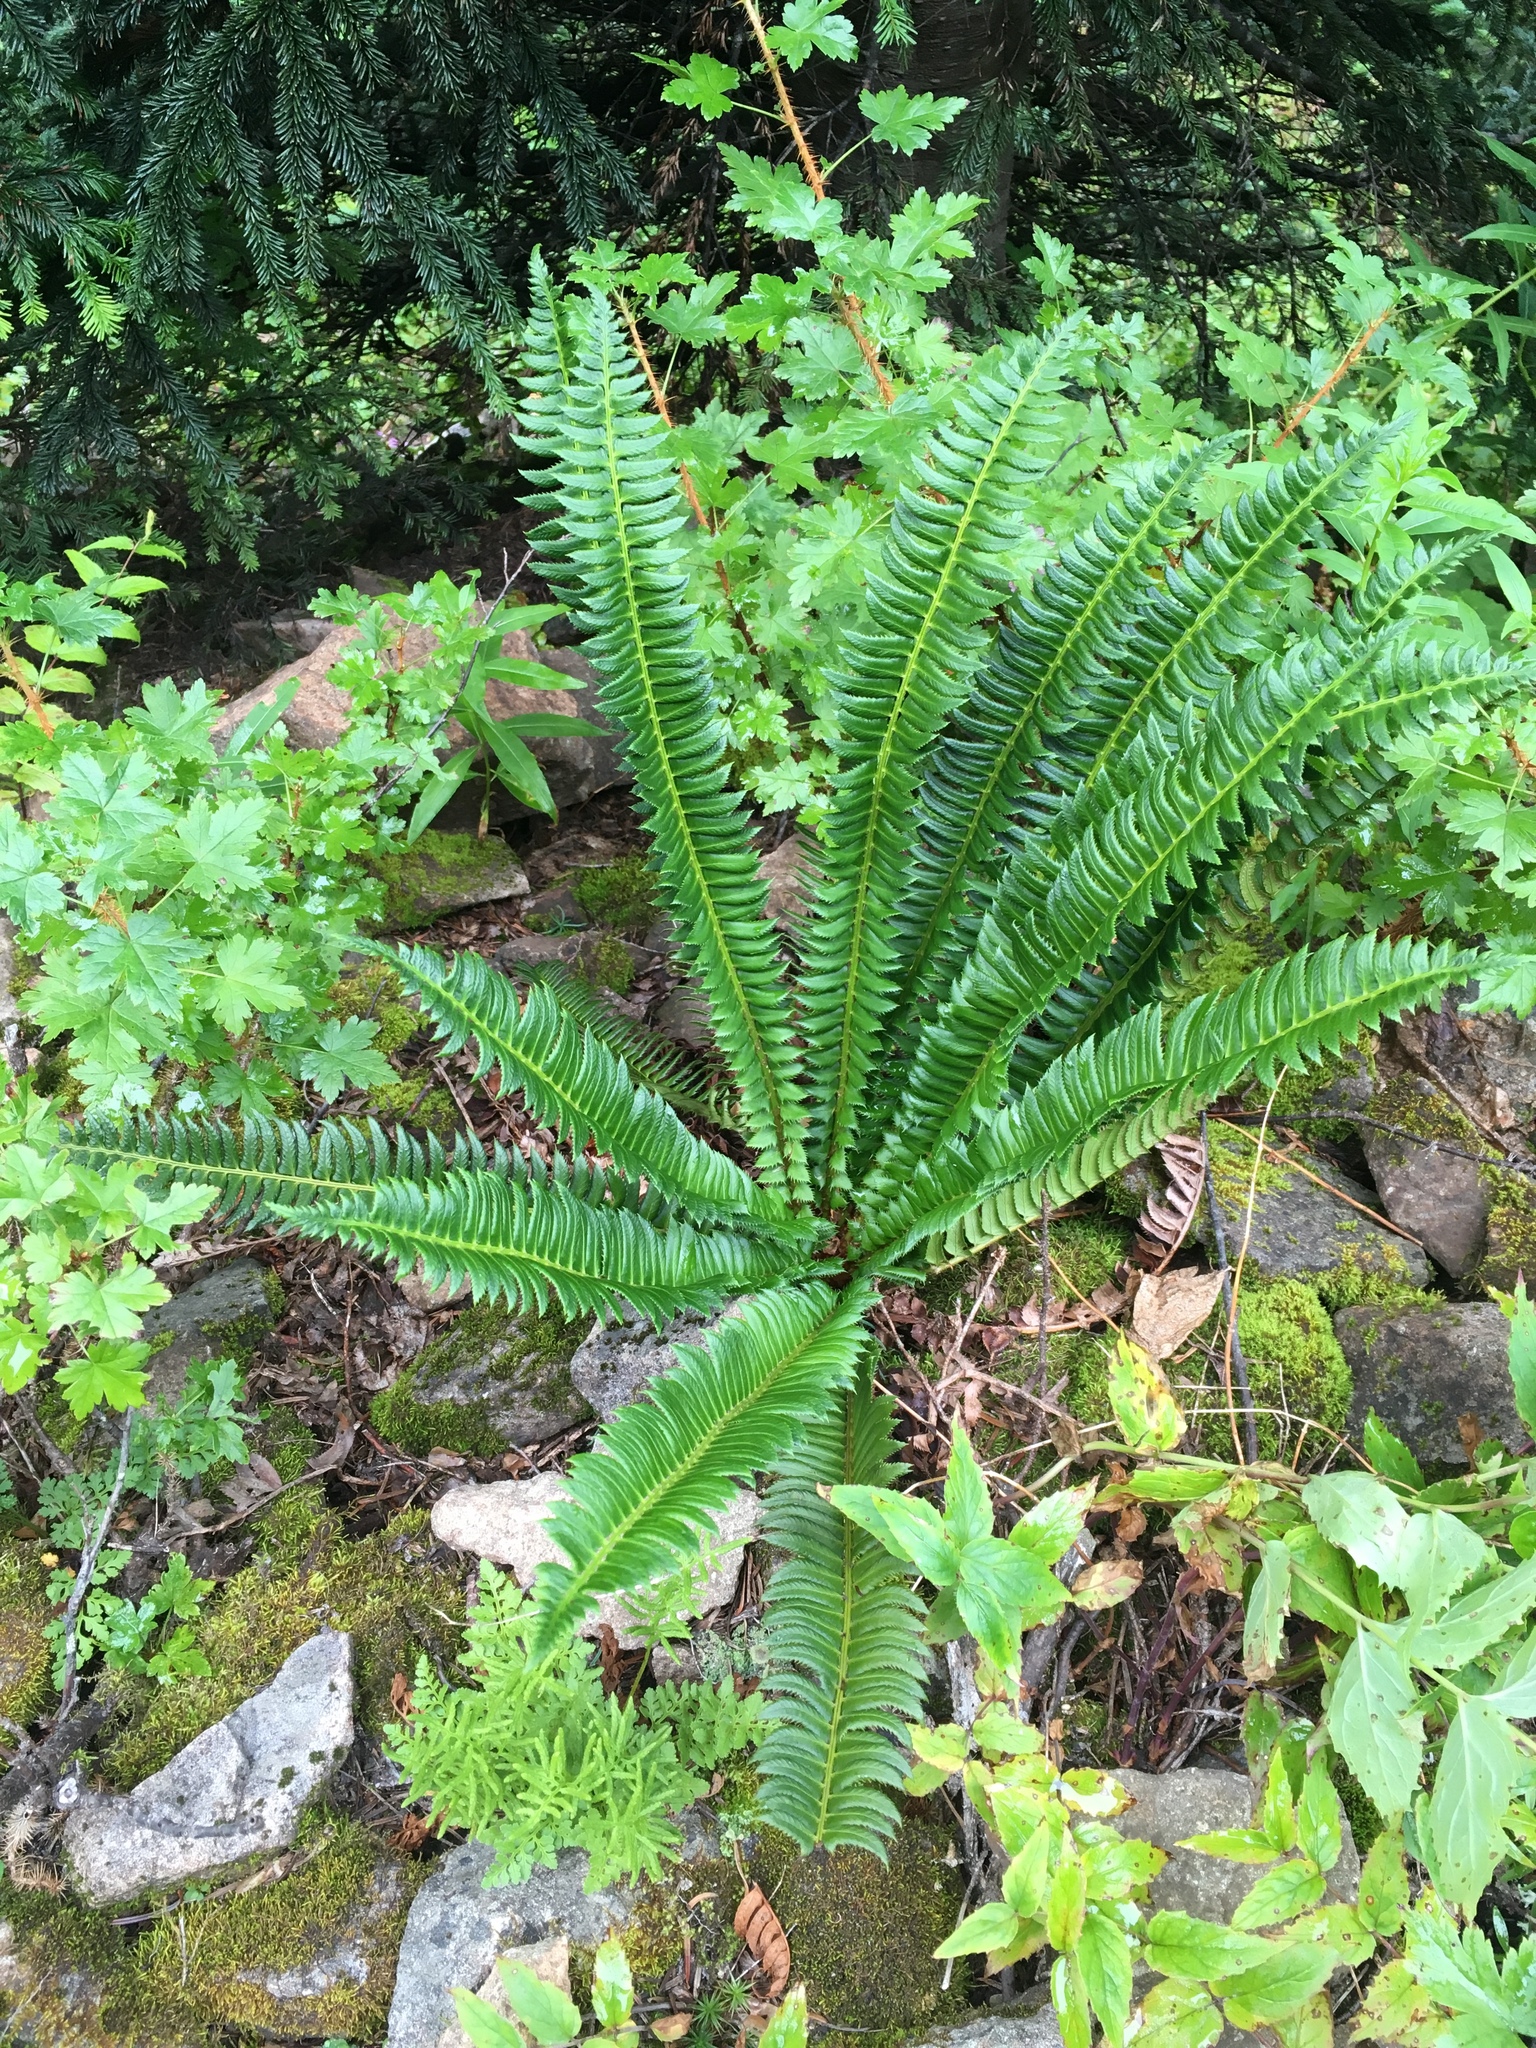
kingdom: Plantae
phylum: Tracheophyta
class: Polypodiopsida
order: Polypodiales
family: Dryopteridaceae
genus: Polystichum
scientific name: Polystichum lonchitis
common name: Holly fern
